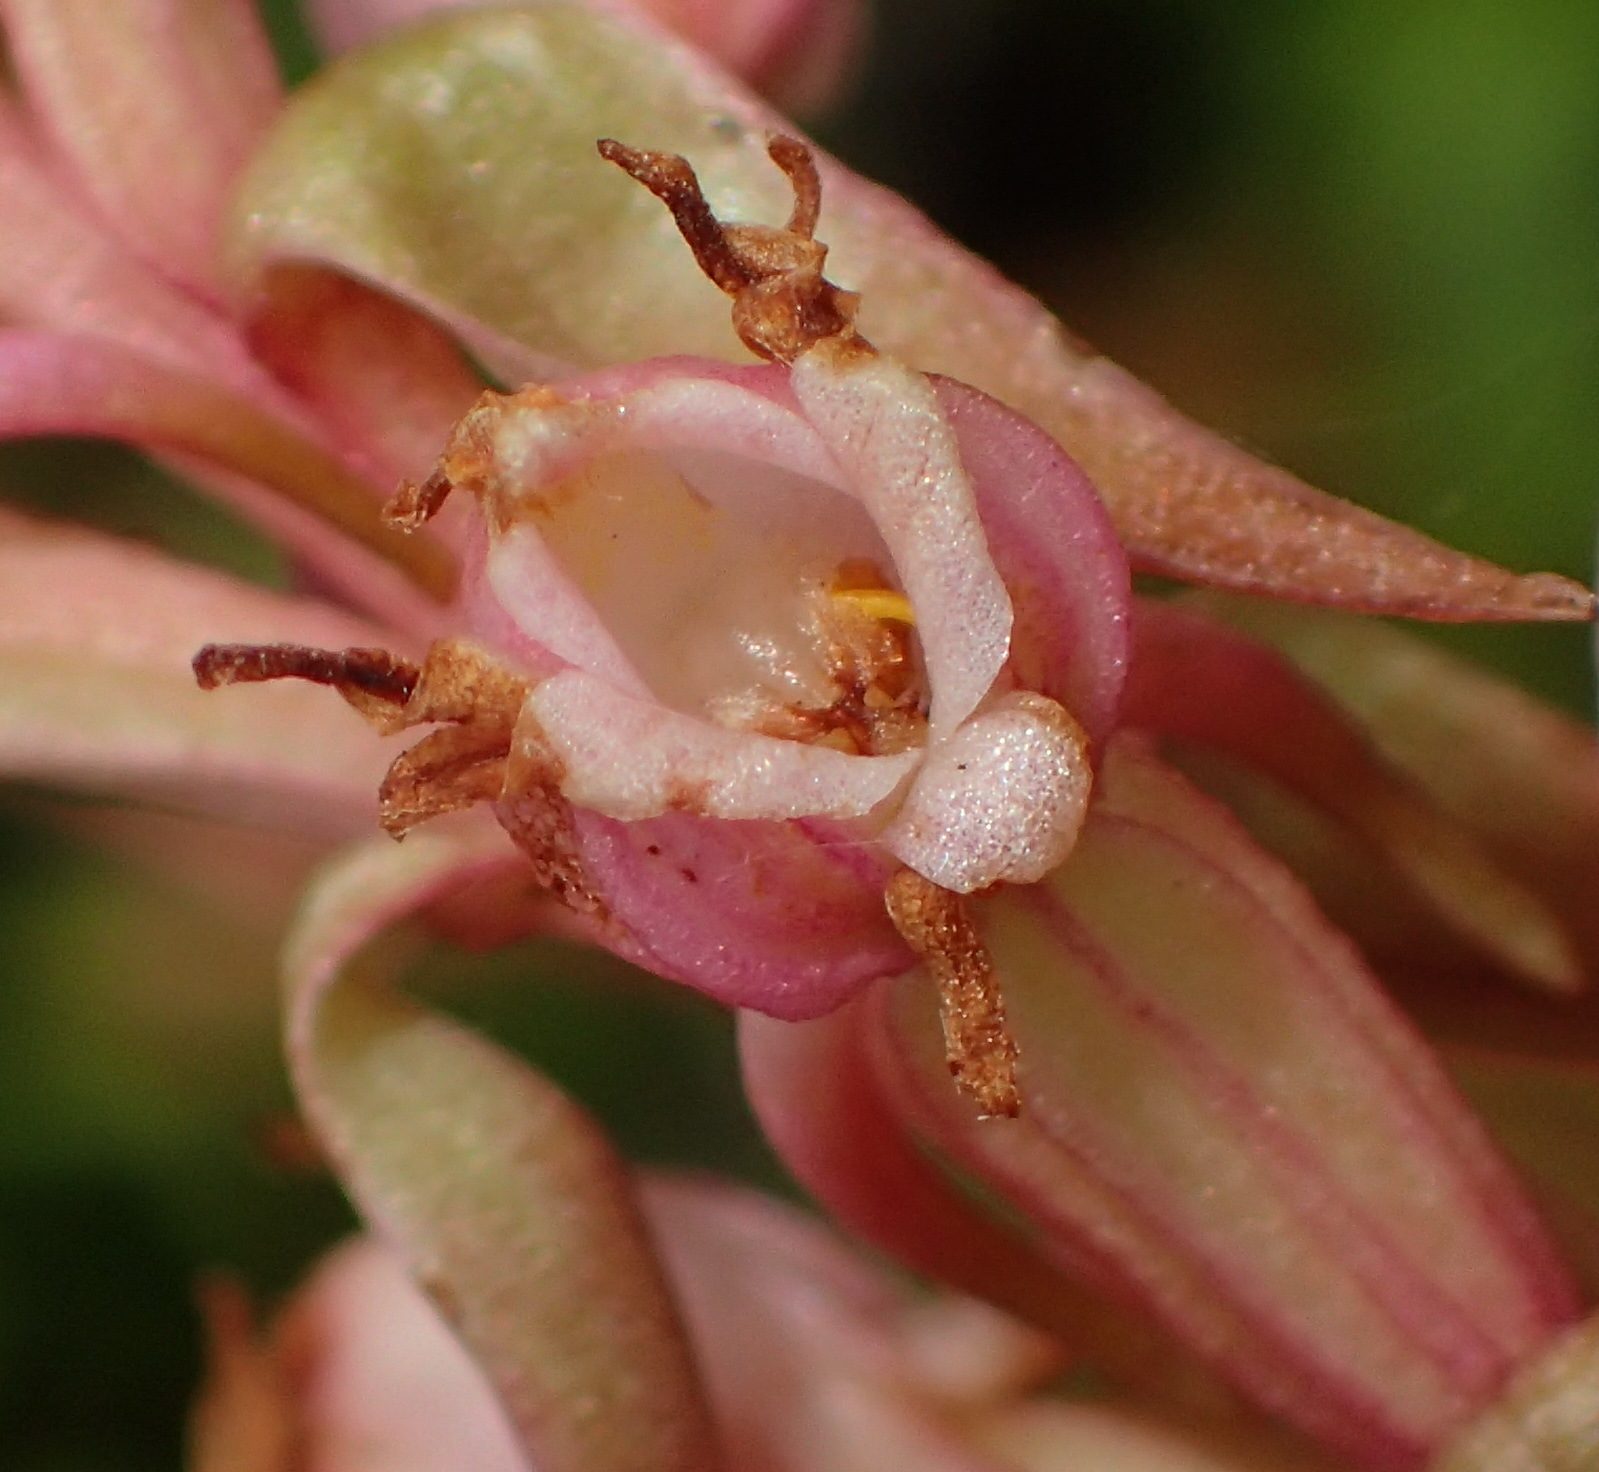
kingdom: Plantae
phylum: Tracheophyta
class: Liliopsida
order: Asparagales
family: Orchidaceae
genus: Satyrium
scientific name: Satyrium ligulatum
